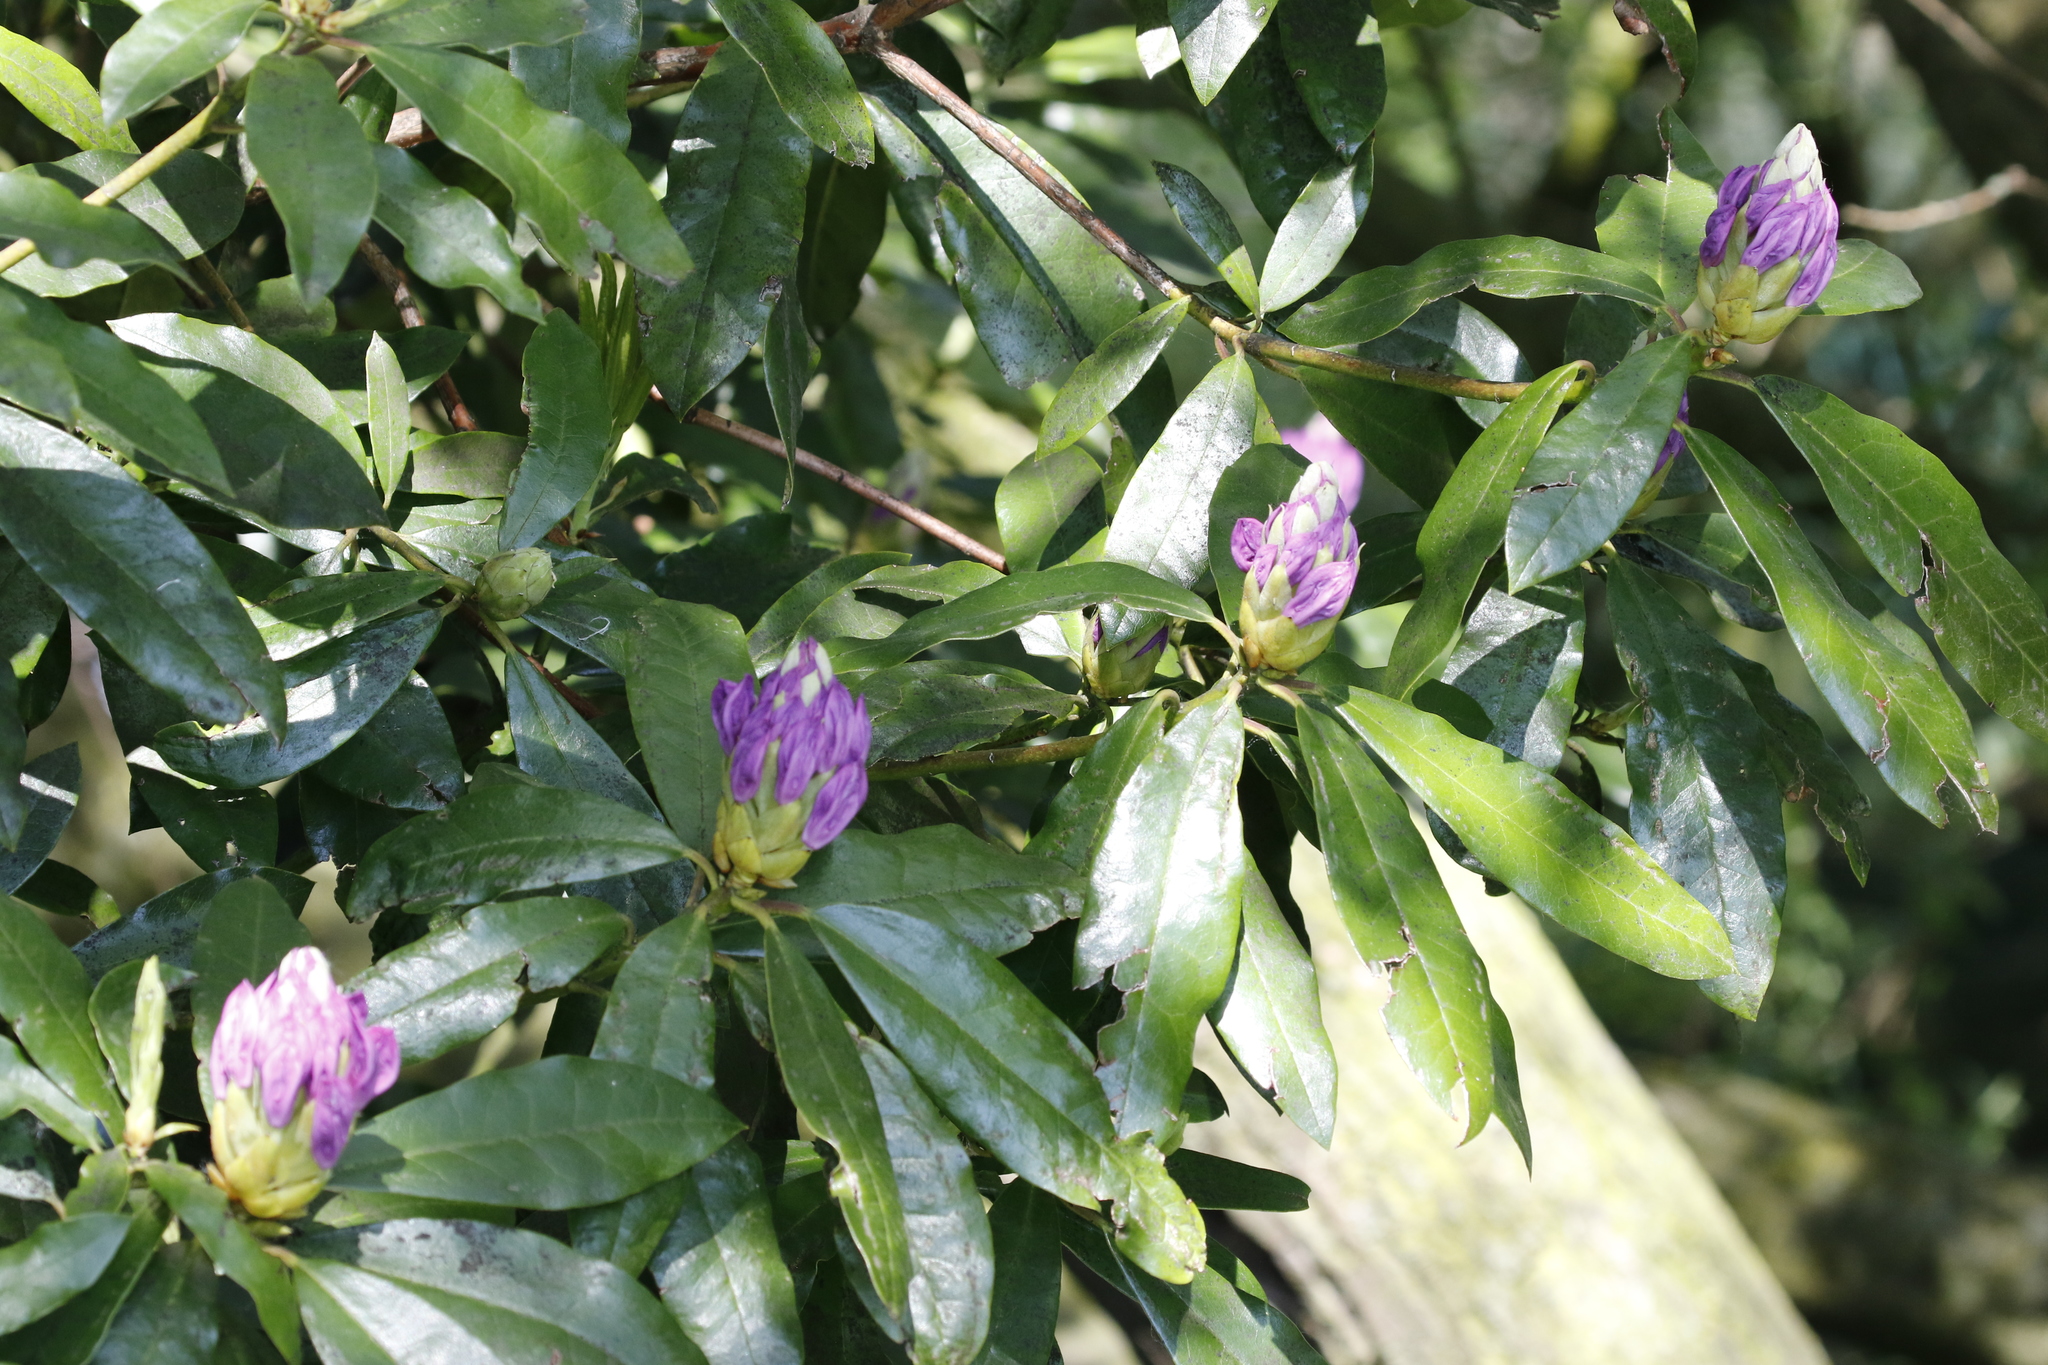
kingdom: Plantae
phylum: Tracheophyta
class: Magnoliopsida
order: Ericales
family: Ericaceae
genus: Rhododendron
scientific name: Rhododendron ponticum
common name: Rhododendron
